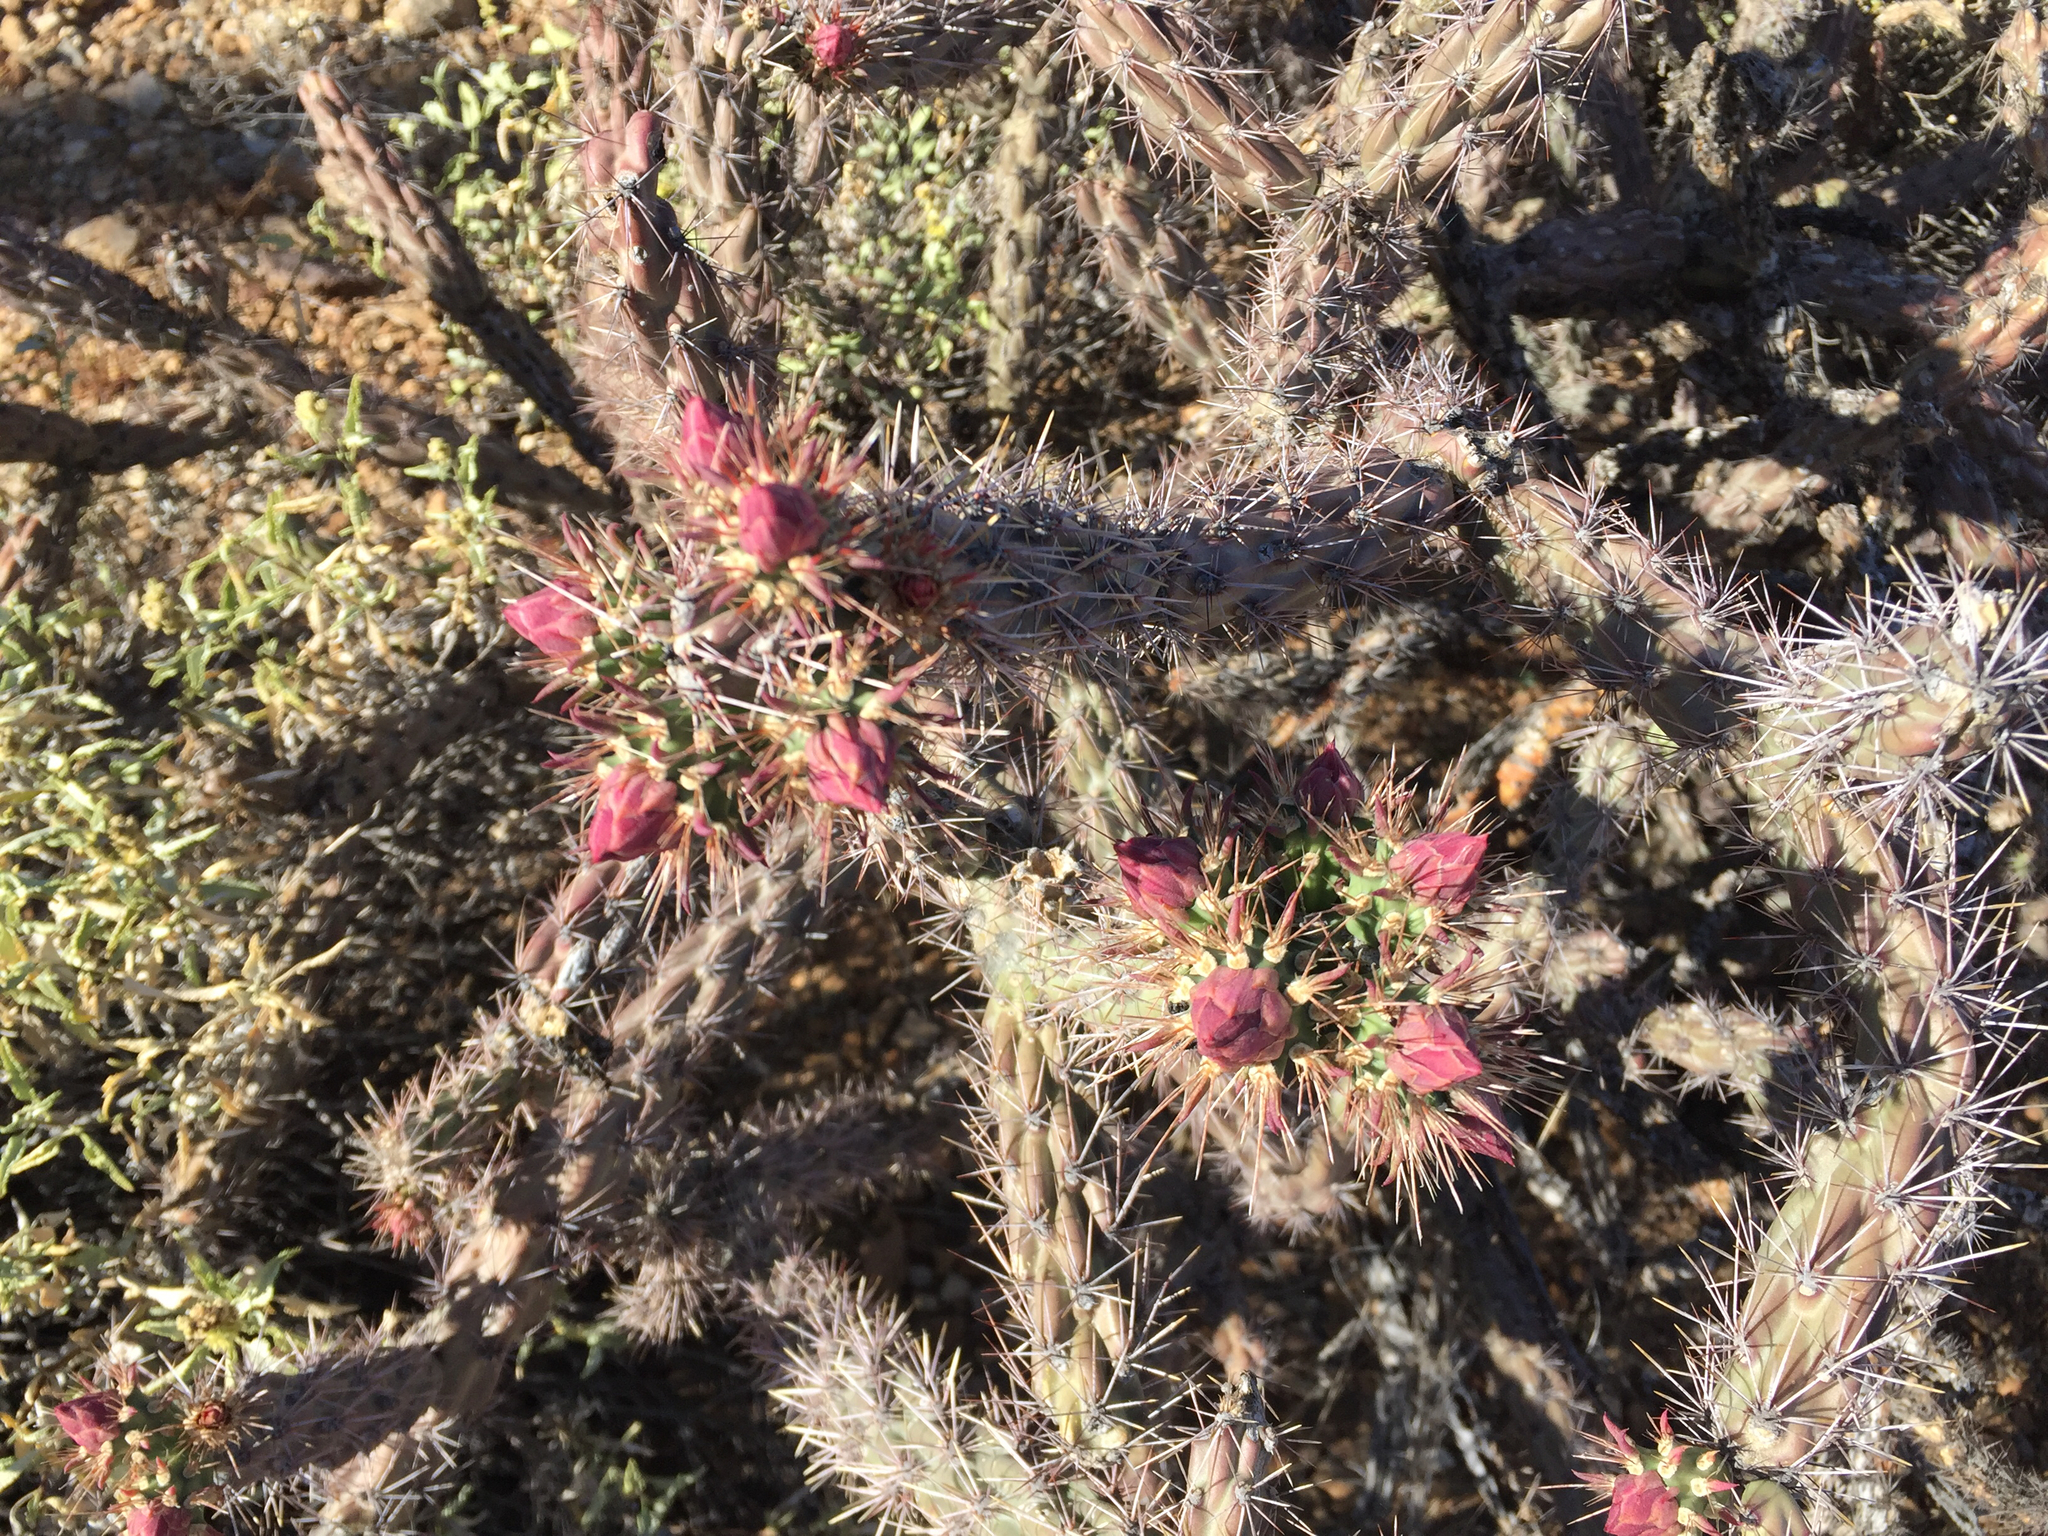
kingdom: Plantae
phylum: Tracheophyta
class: Magnoliopsida
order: Caryophyllales
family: Cactaceae
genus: Cylindropuntia
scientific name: Cylindropuntia acanthocarpa
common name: Buckhorn cholla
